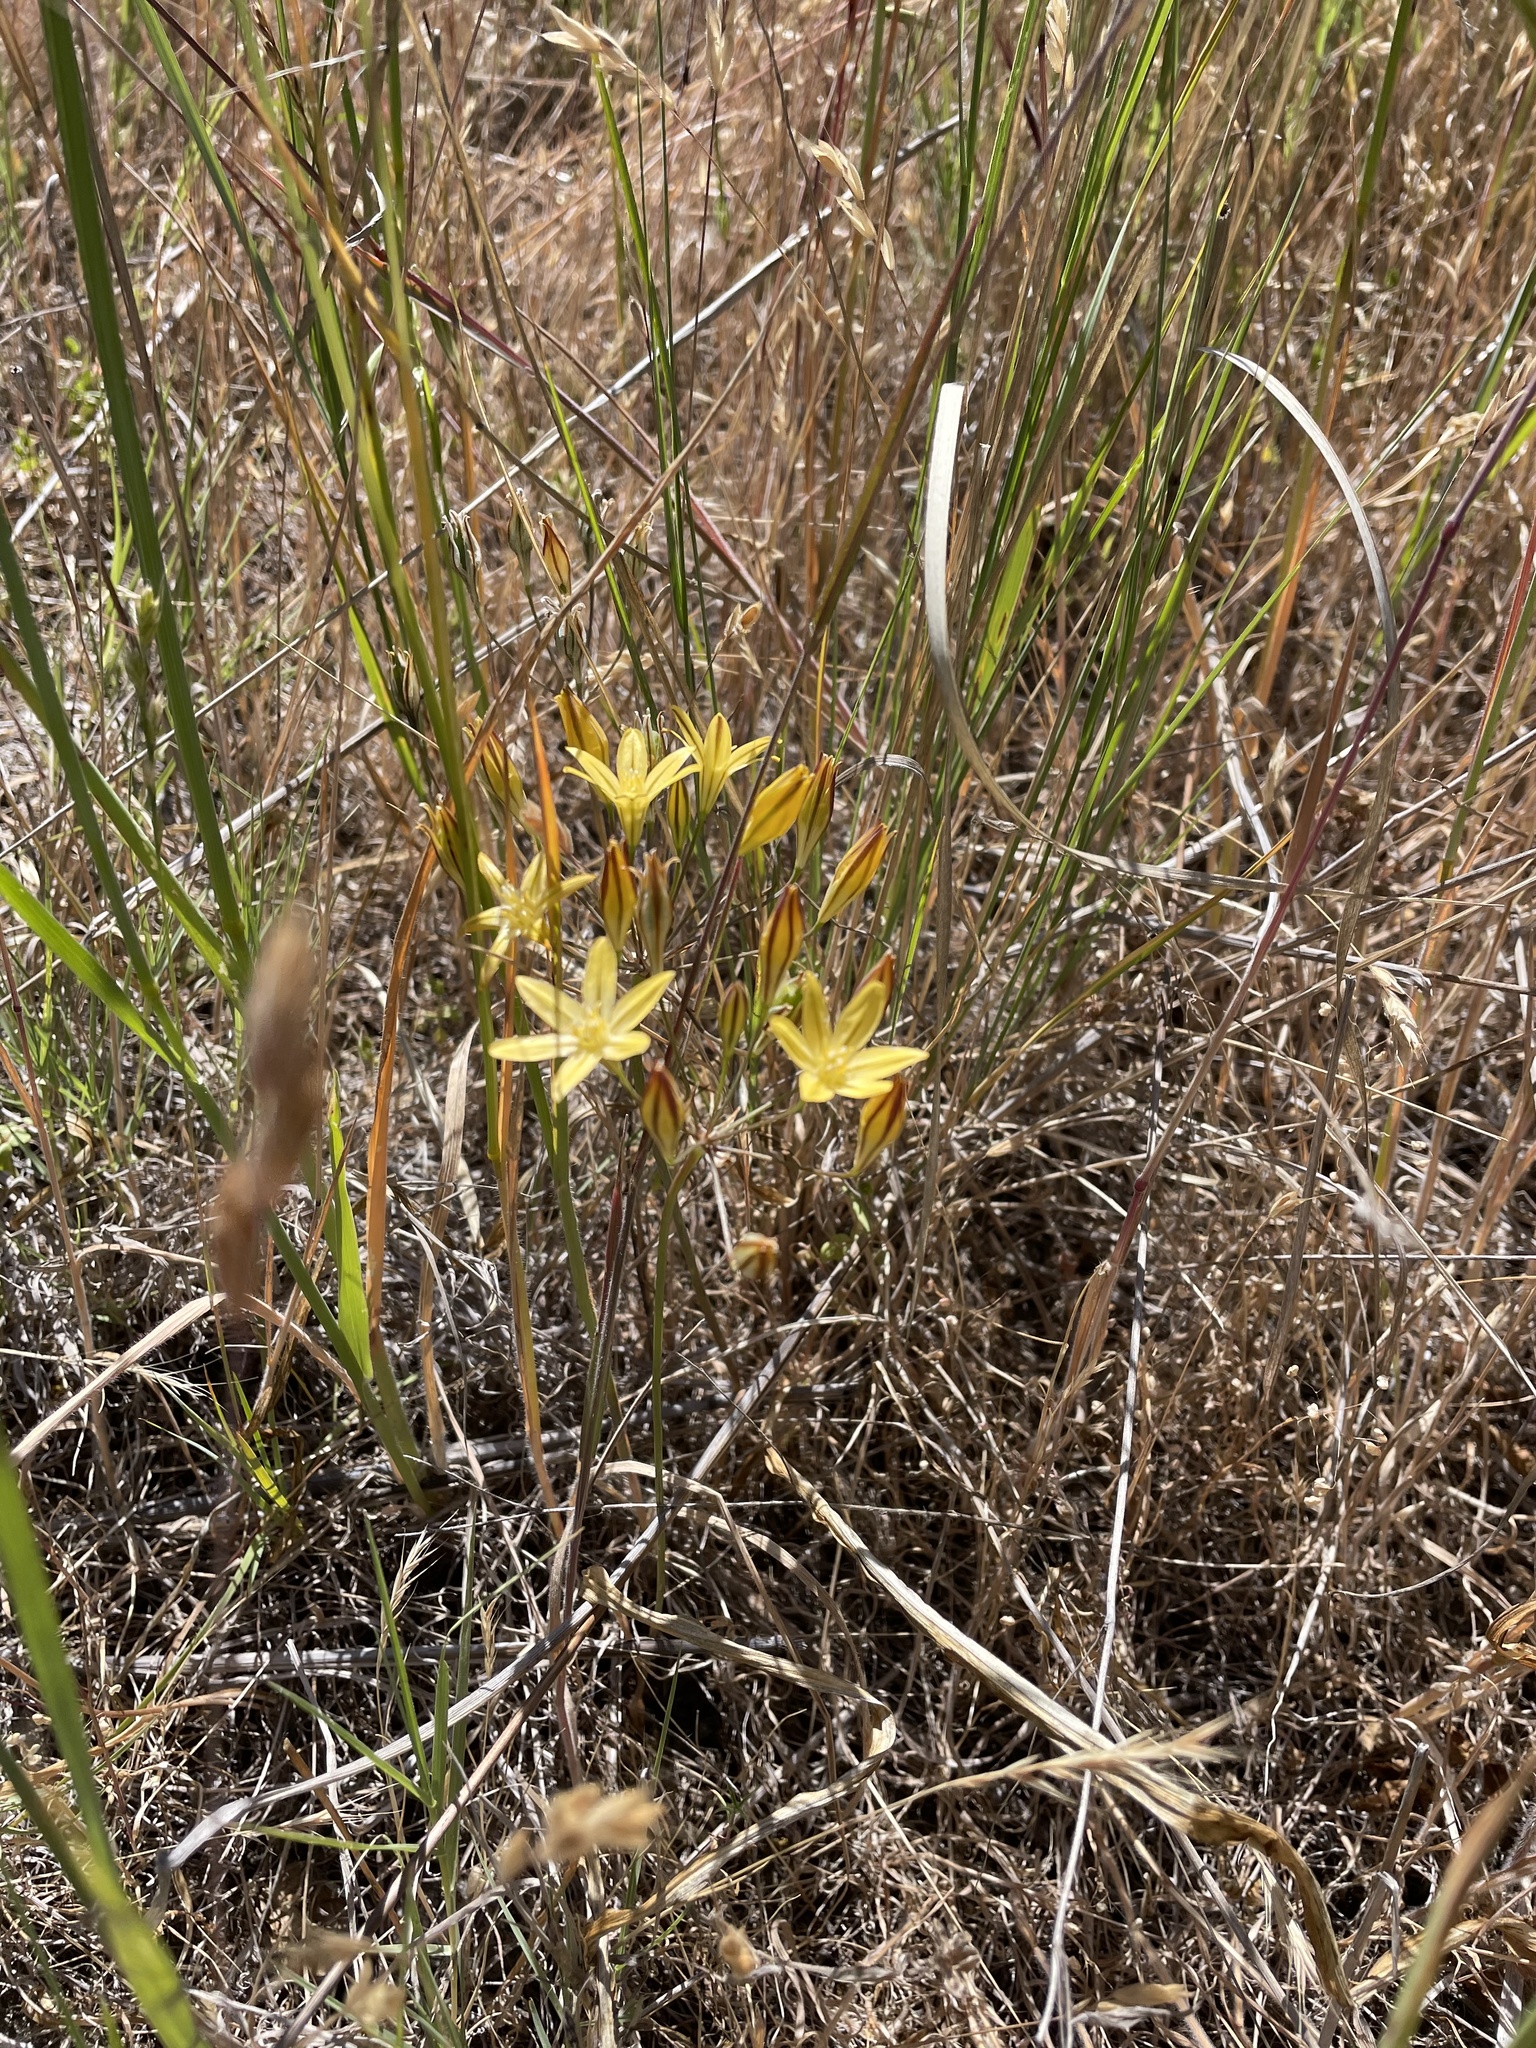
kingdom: Plantae
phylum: Tracheophyta
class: Liliopsida
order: Asparagales
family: Asparagaceae
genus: Triteleia
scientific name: Triteleia ixioides
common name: Yellow-brodiaea
